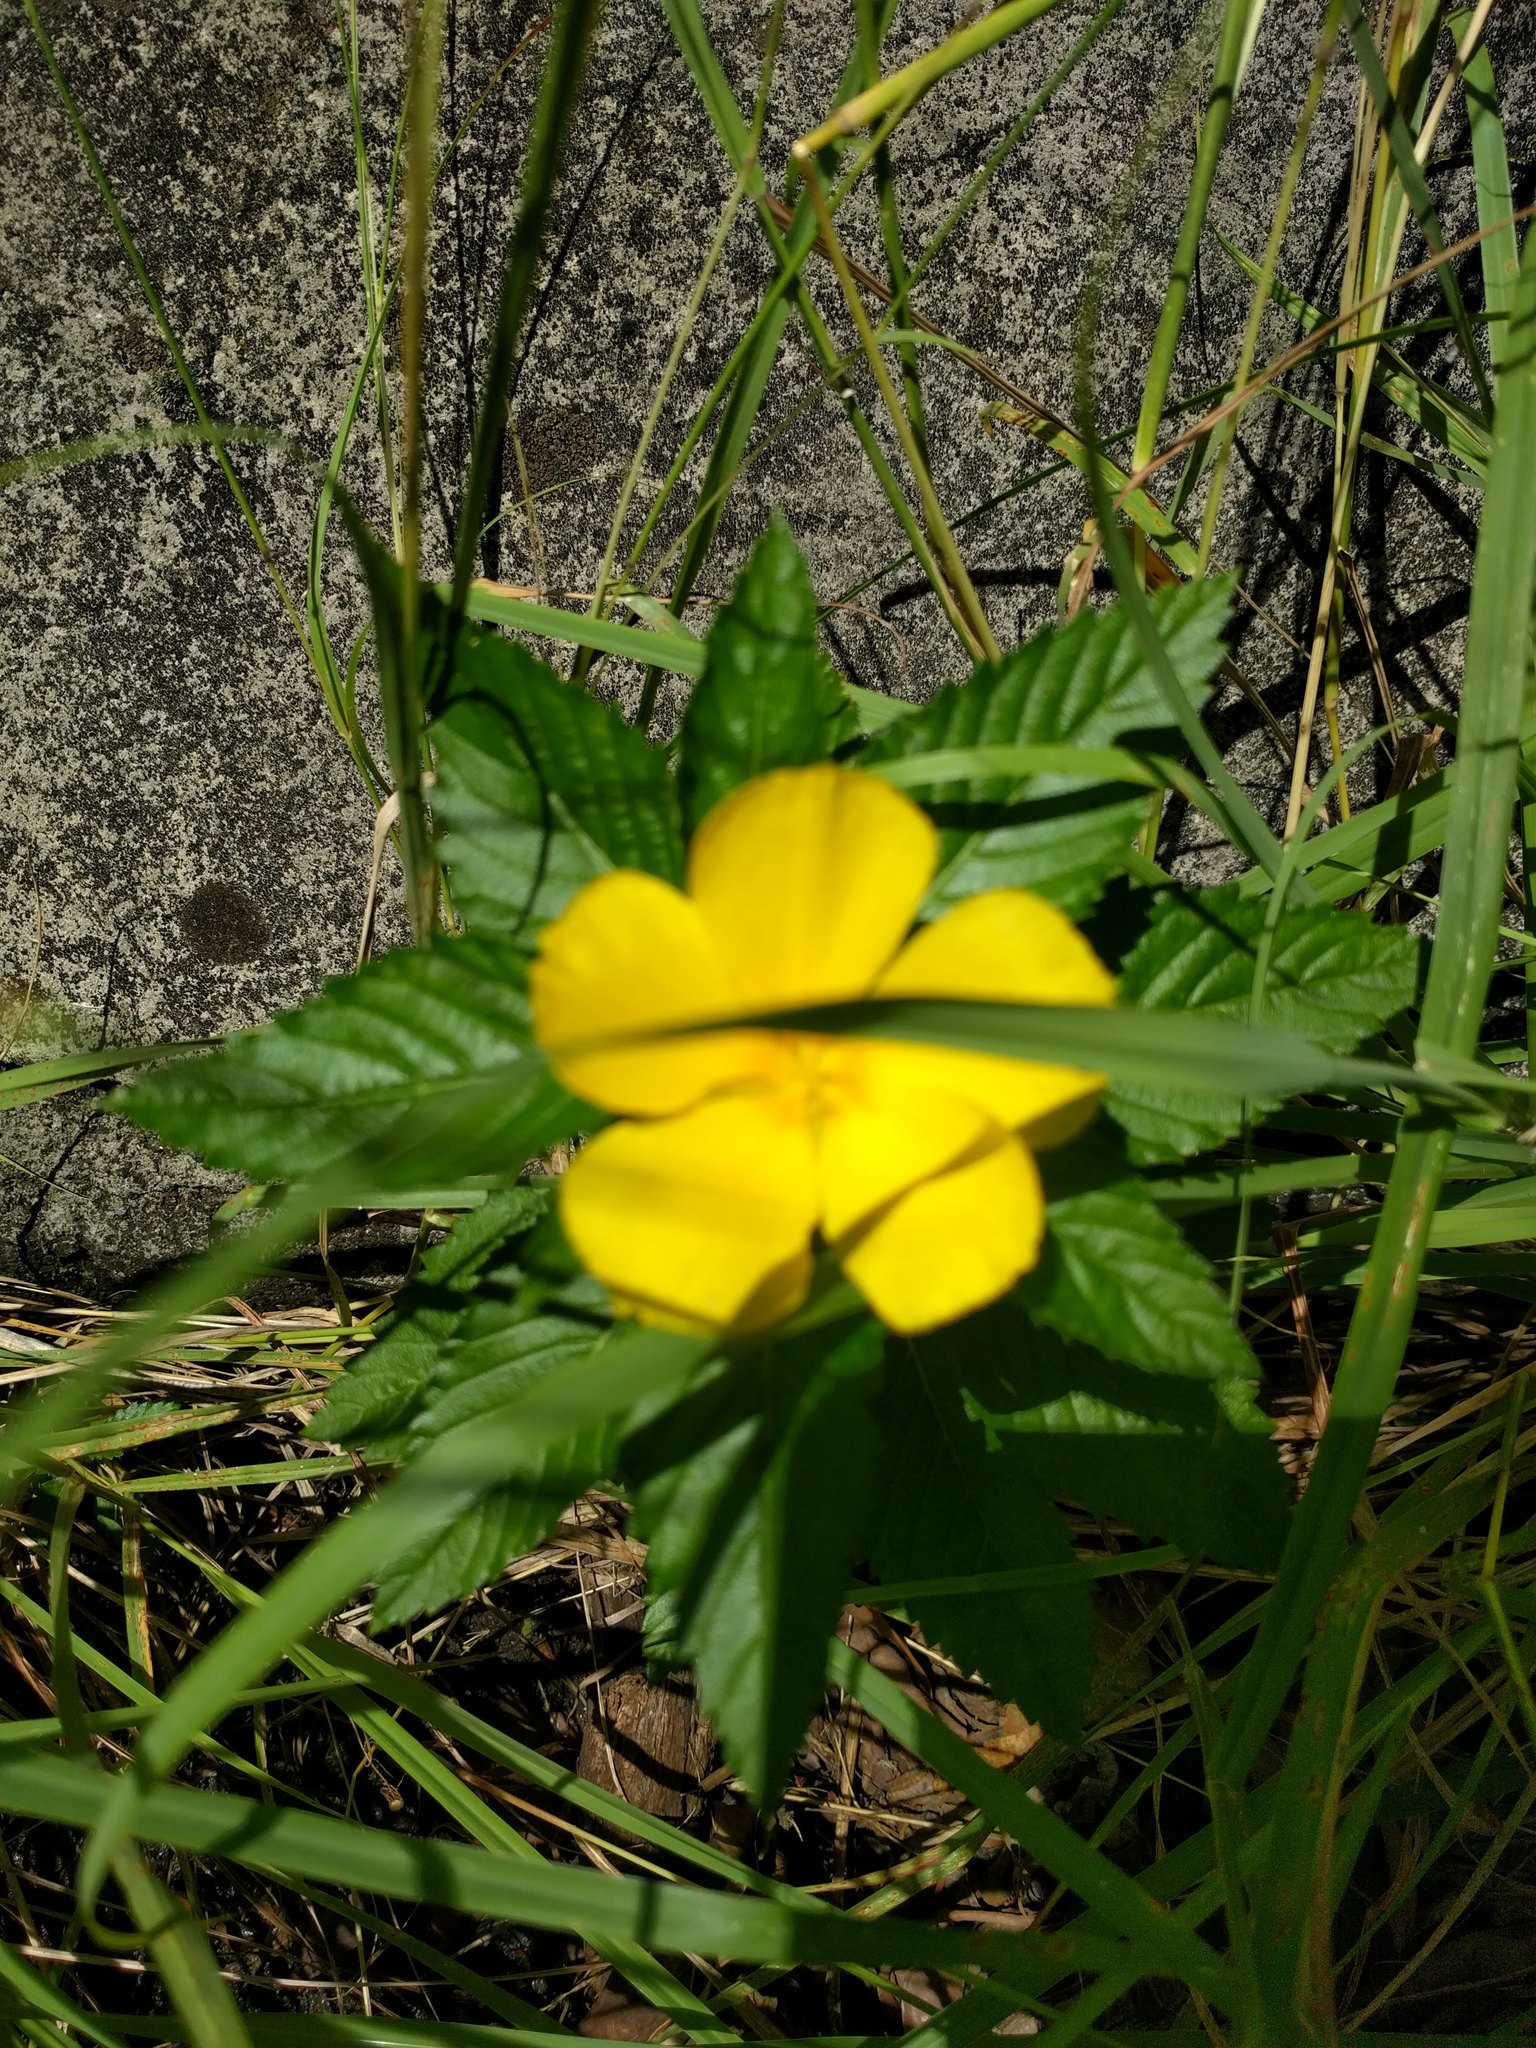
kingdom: Plantae
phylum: Tracheophyta
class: Magnoliopsida
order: Malpighiales
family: Turneraceae
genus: Turnera
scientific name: Turnera ulmifolia
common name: Ramgoat dashalong
